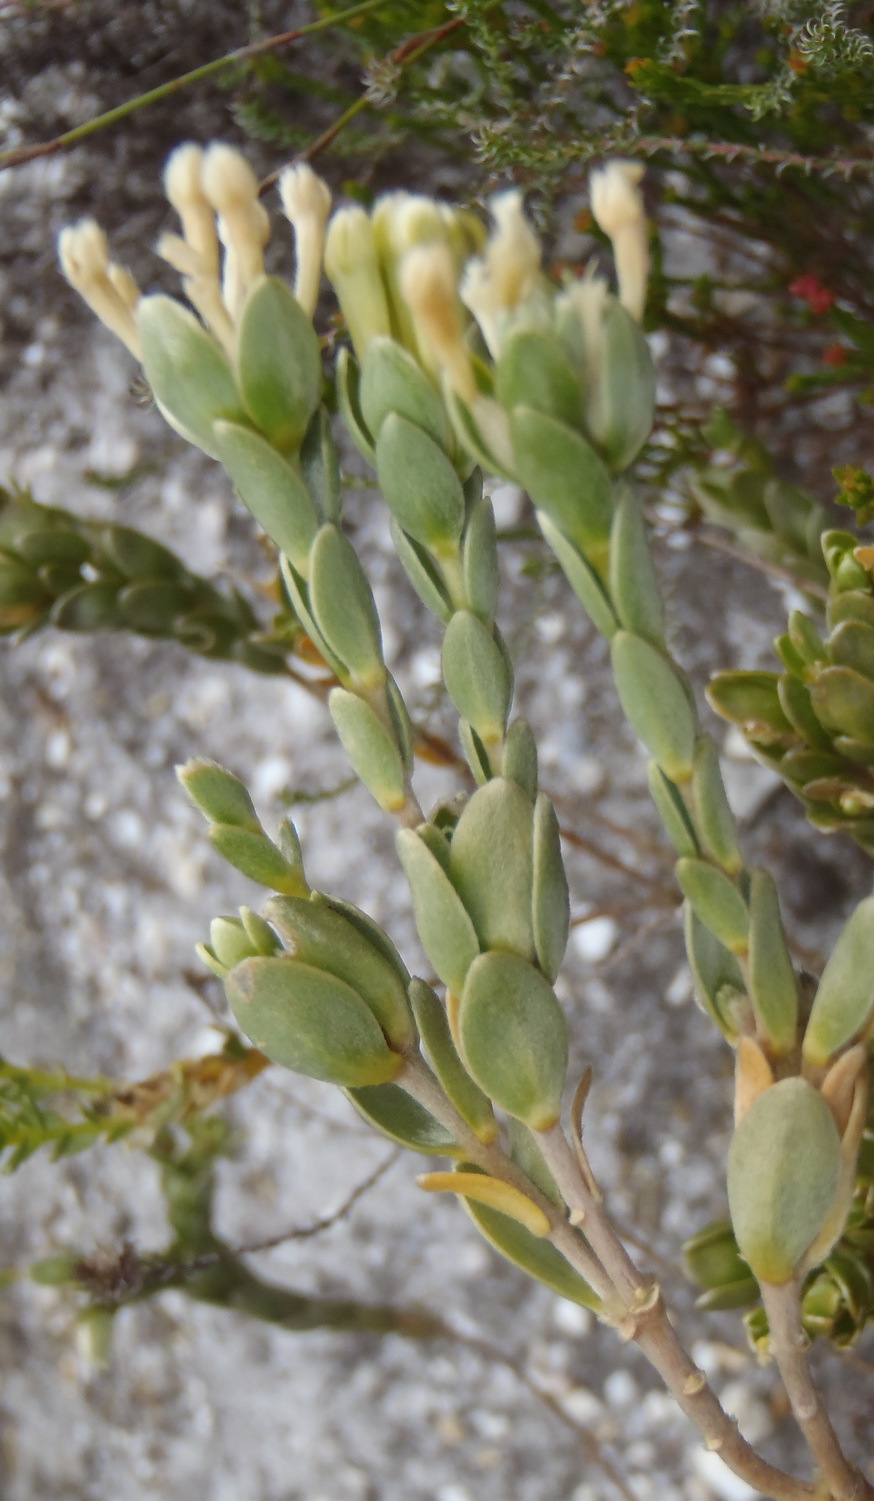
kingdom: Plantae
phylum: Tracheophyta
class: Magnoliopsida
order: Malvales
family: Thymelaeaceae
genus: Gnidia
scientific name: Gnidia anomala
